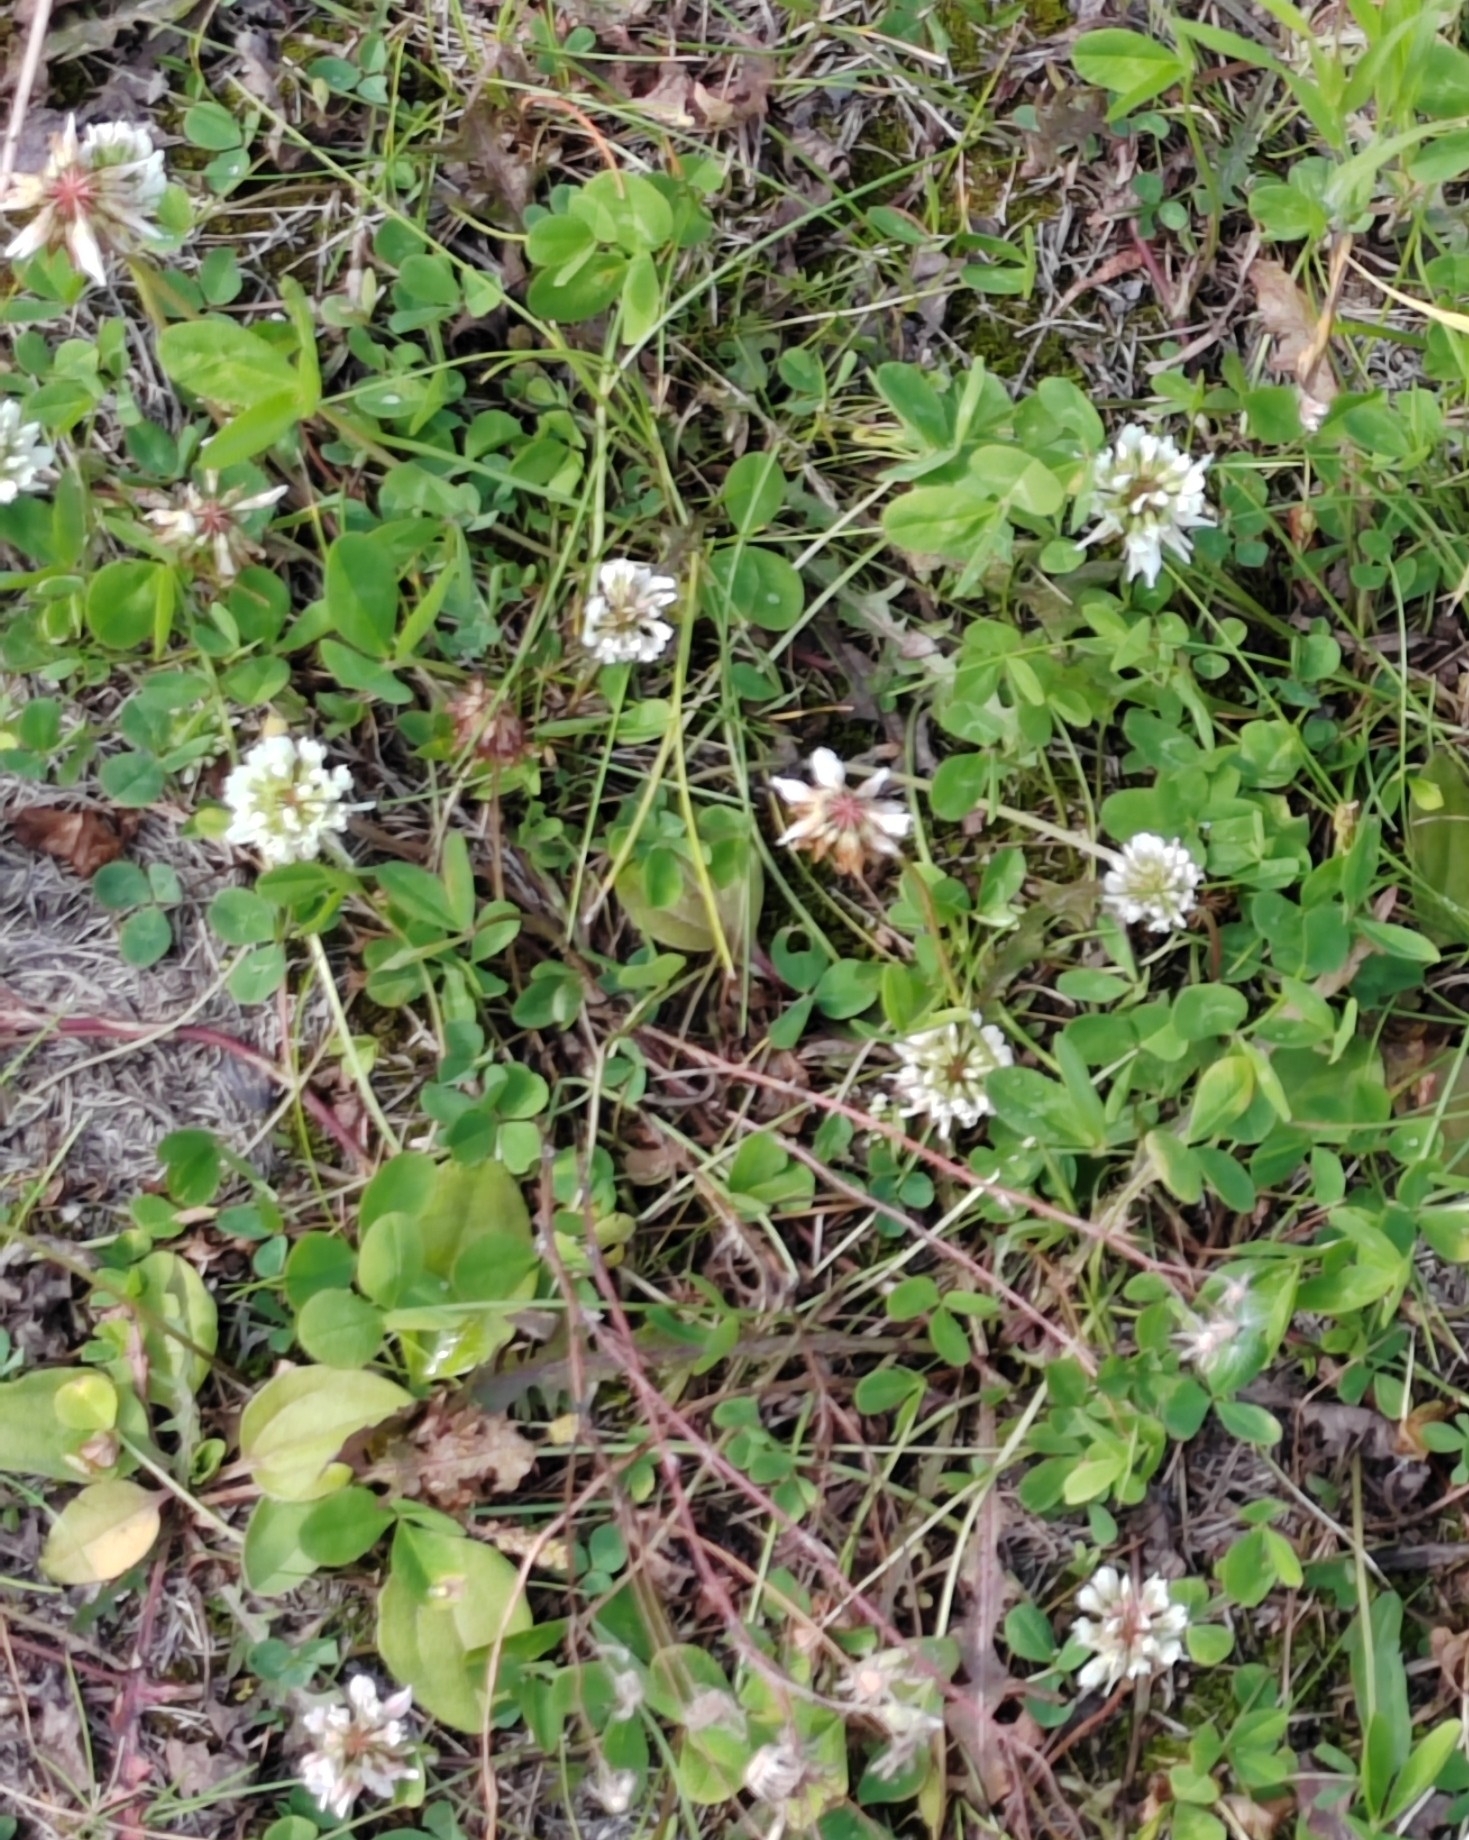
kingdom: Plantae
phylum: Tracheophyta
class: Magnoliopsida
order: Fabales
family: Fabaceae
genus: Trifolium
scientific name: Trifolium repens
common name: White clover
